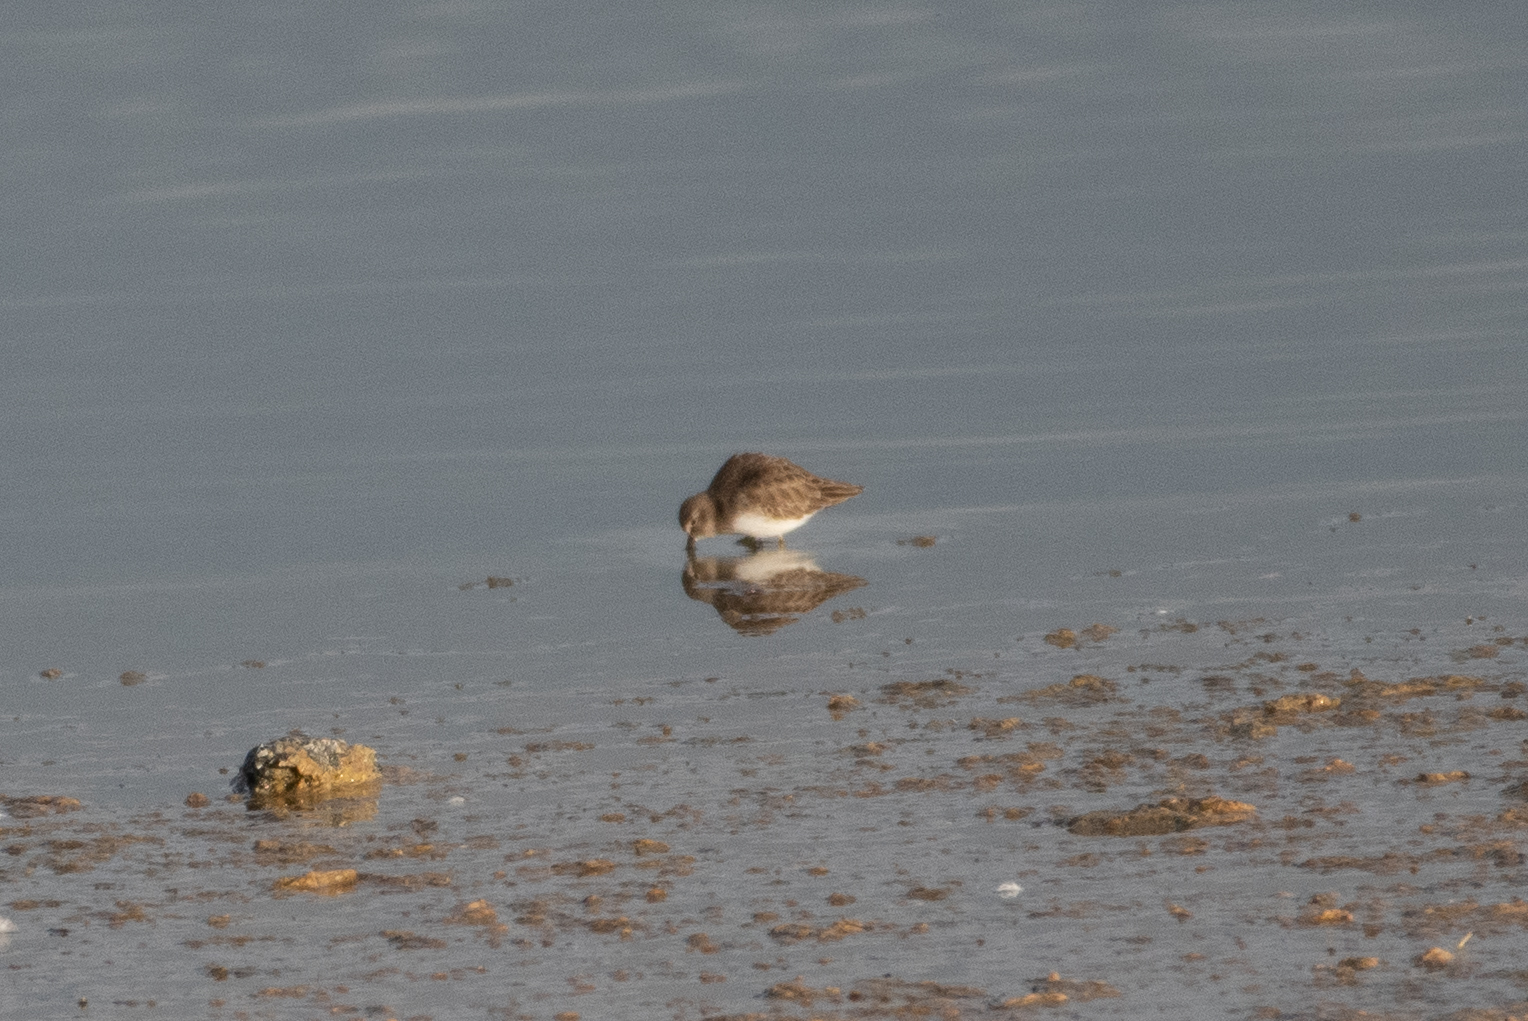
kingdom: Animalia
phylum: Chordata
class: Aves
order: Charadriiformes
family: Scolopacidae
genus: Calidris
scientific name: Calidris alpina
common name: Dunlin
